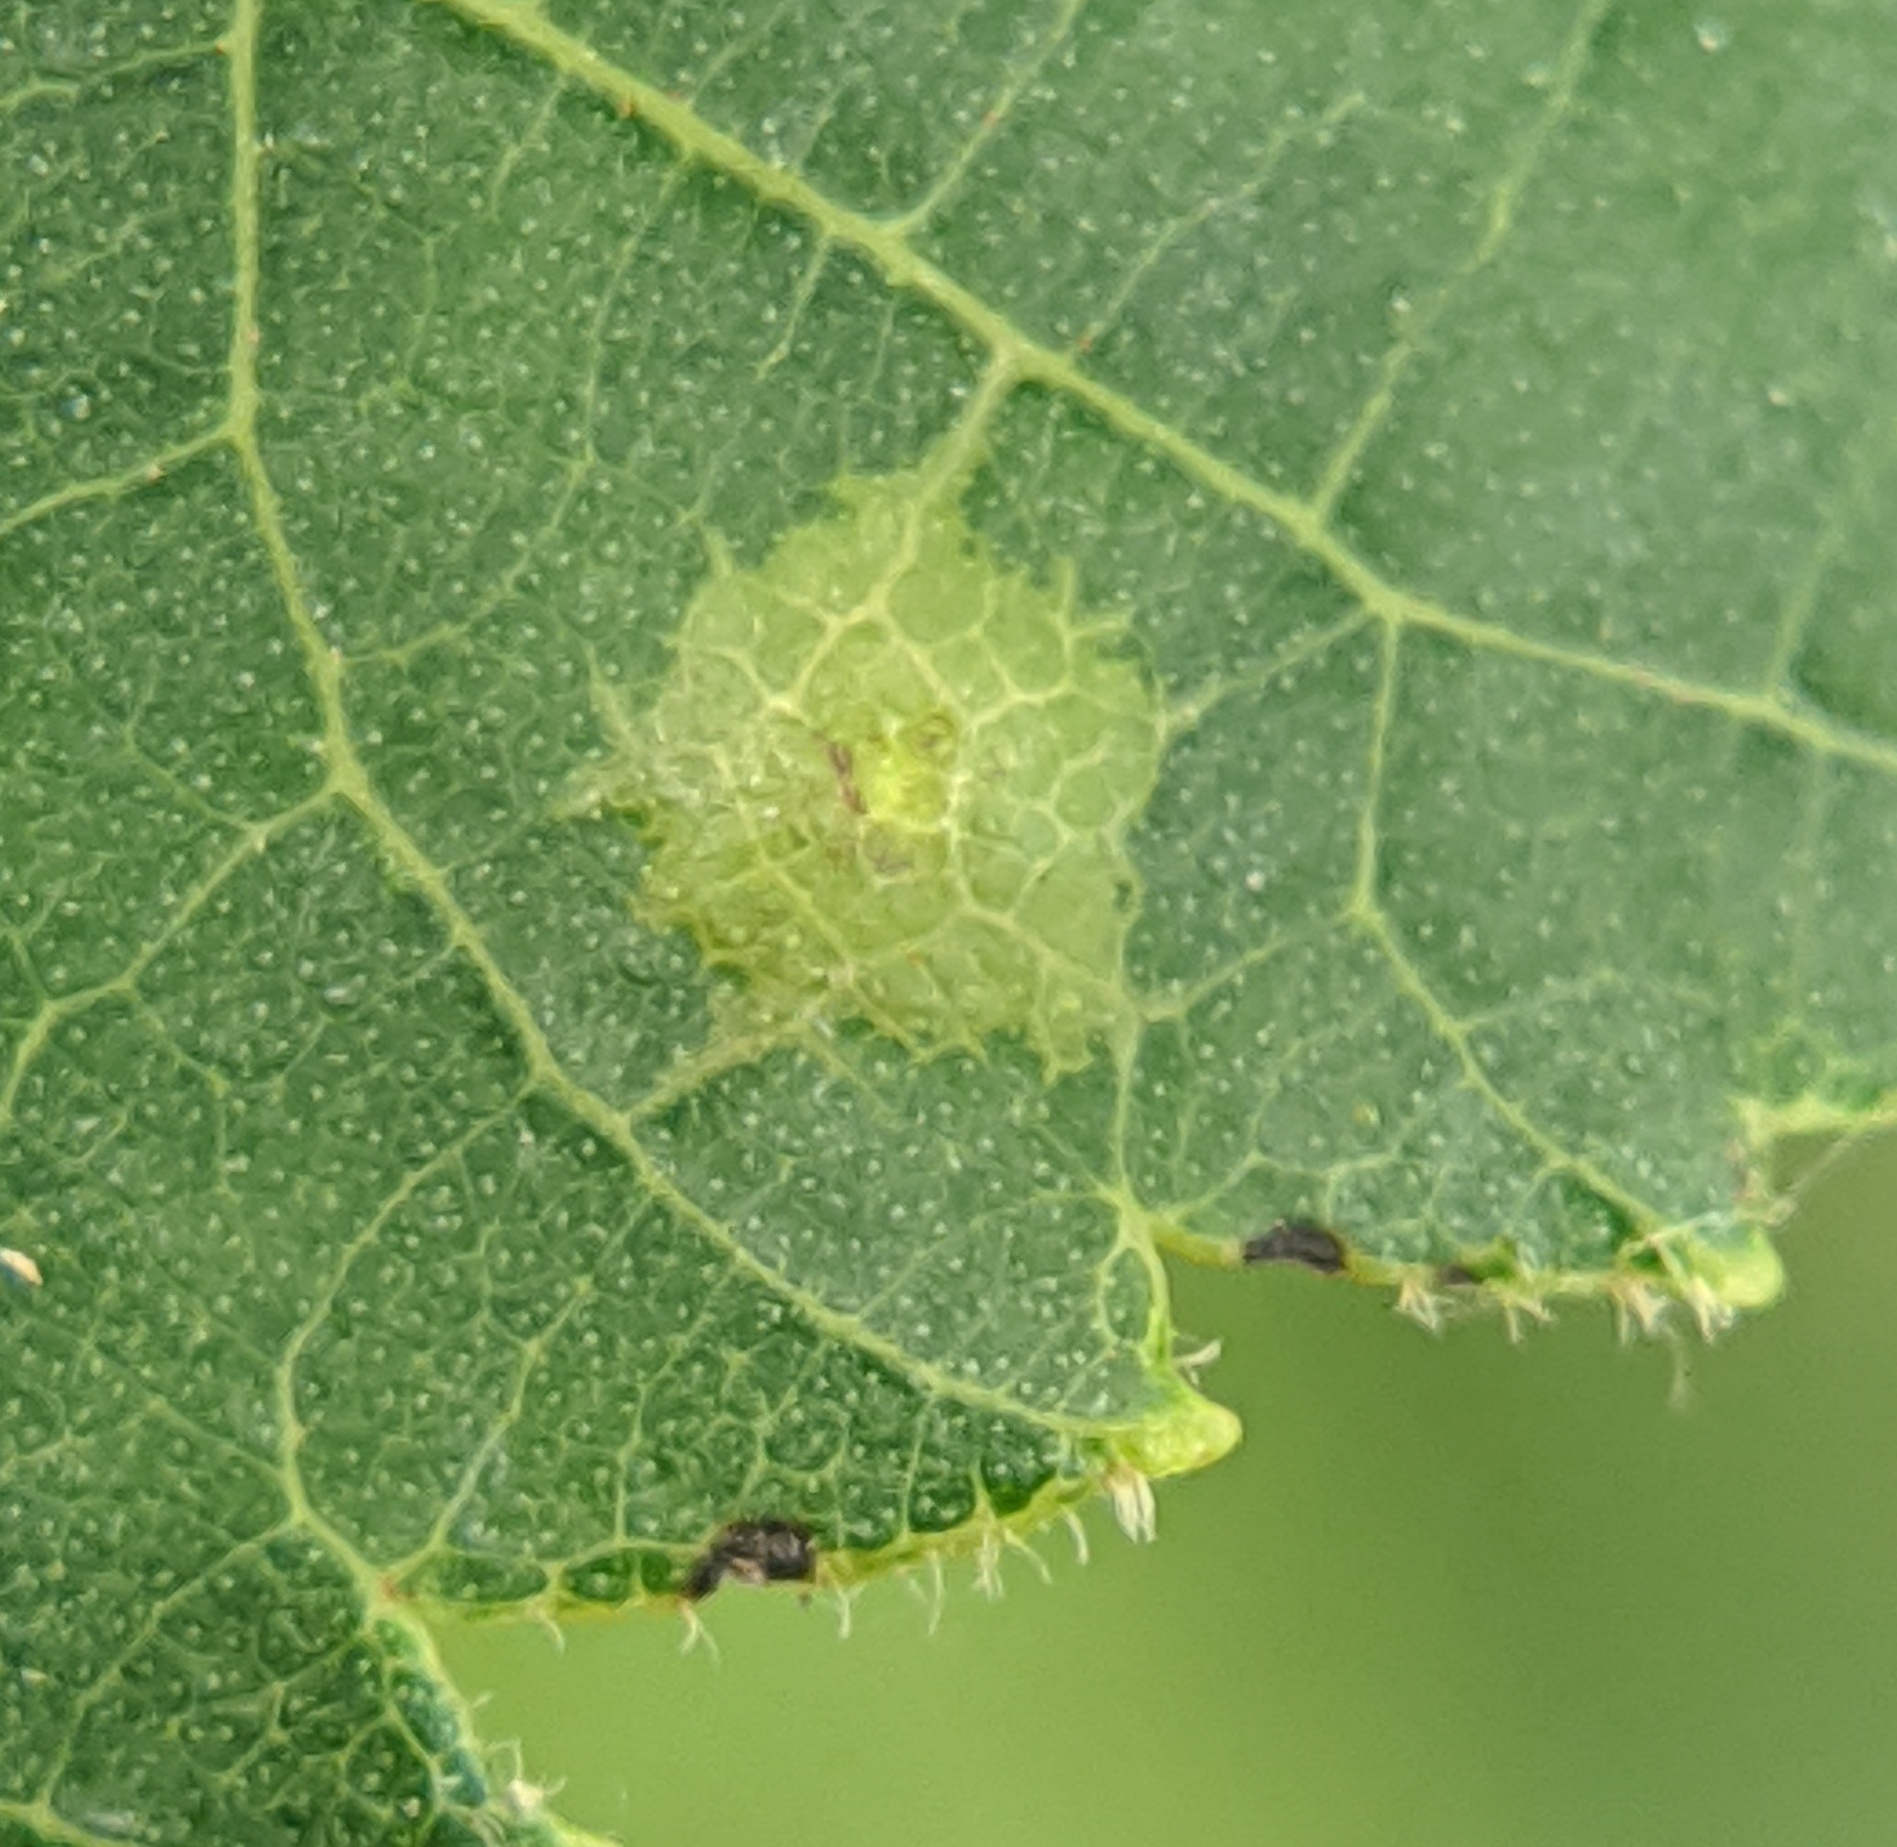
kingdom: Animalia
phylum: Arthropoda
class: Insecta
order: Diptera
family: Cecidomyiidae
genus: Caryomyia
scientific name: Caryomyia deflexipili
